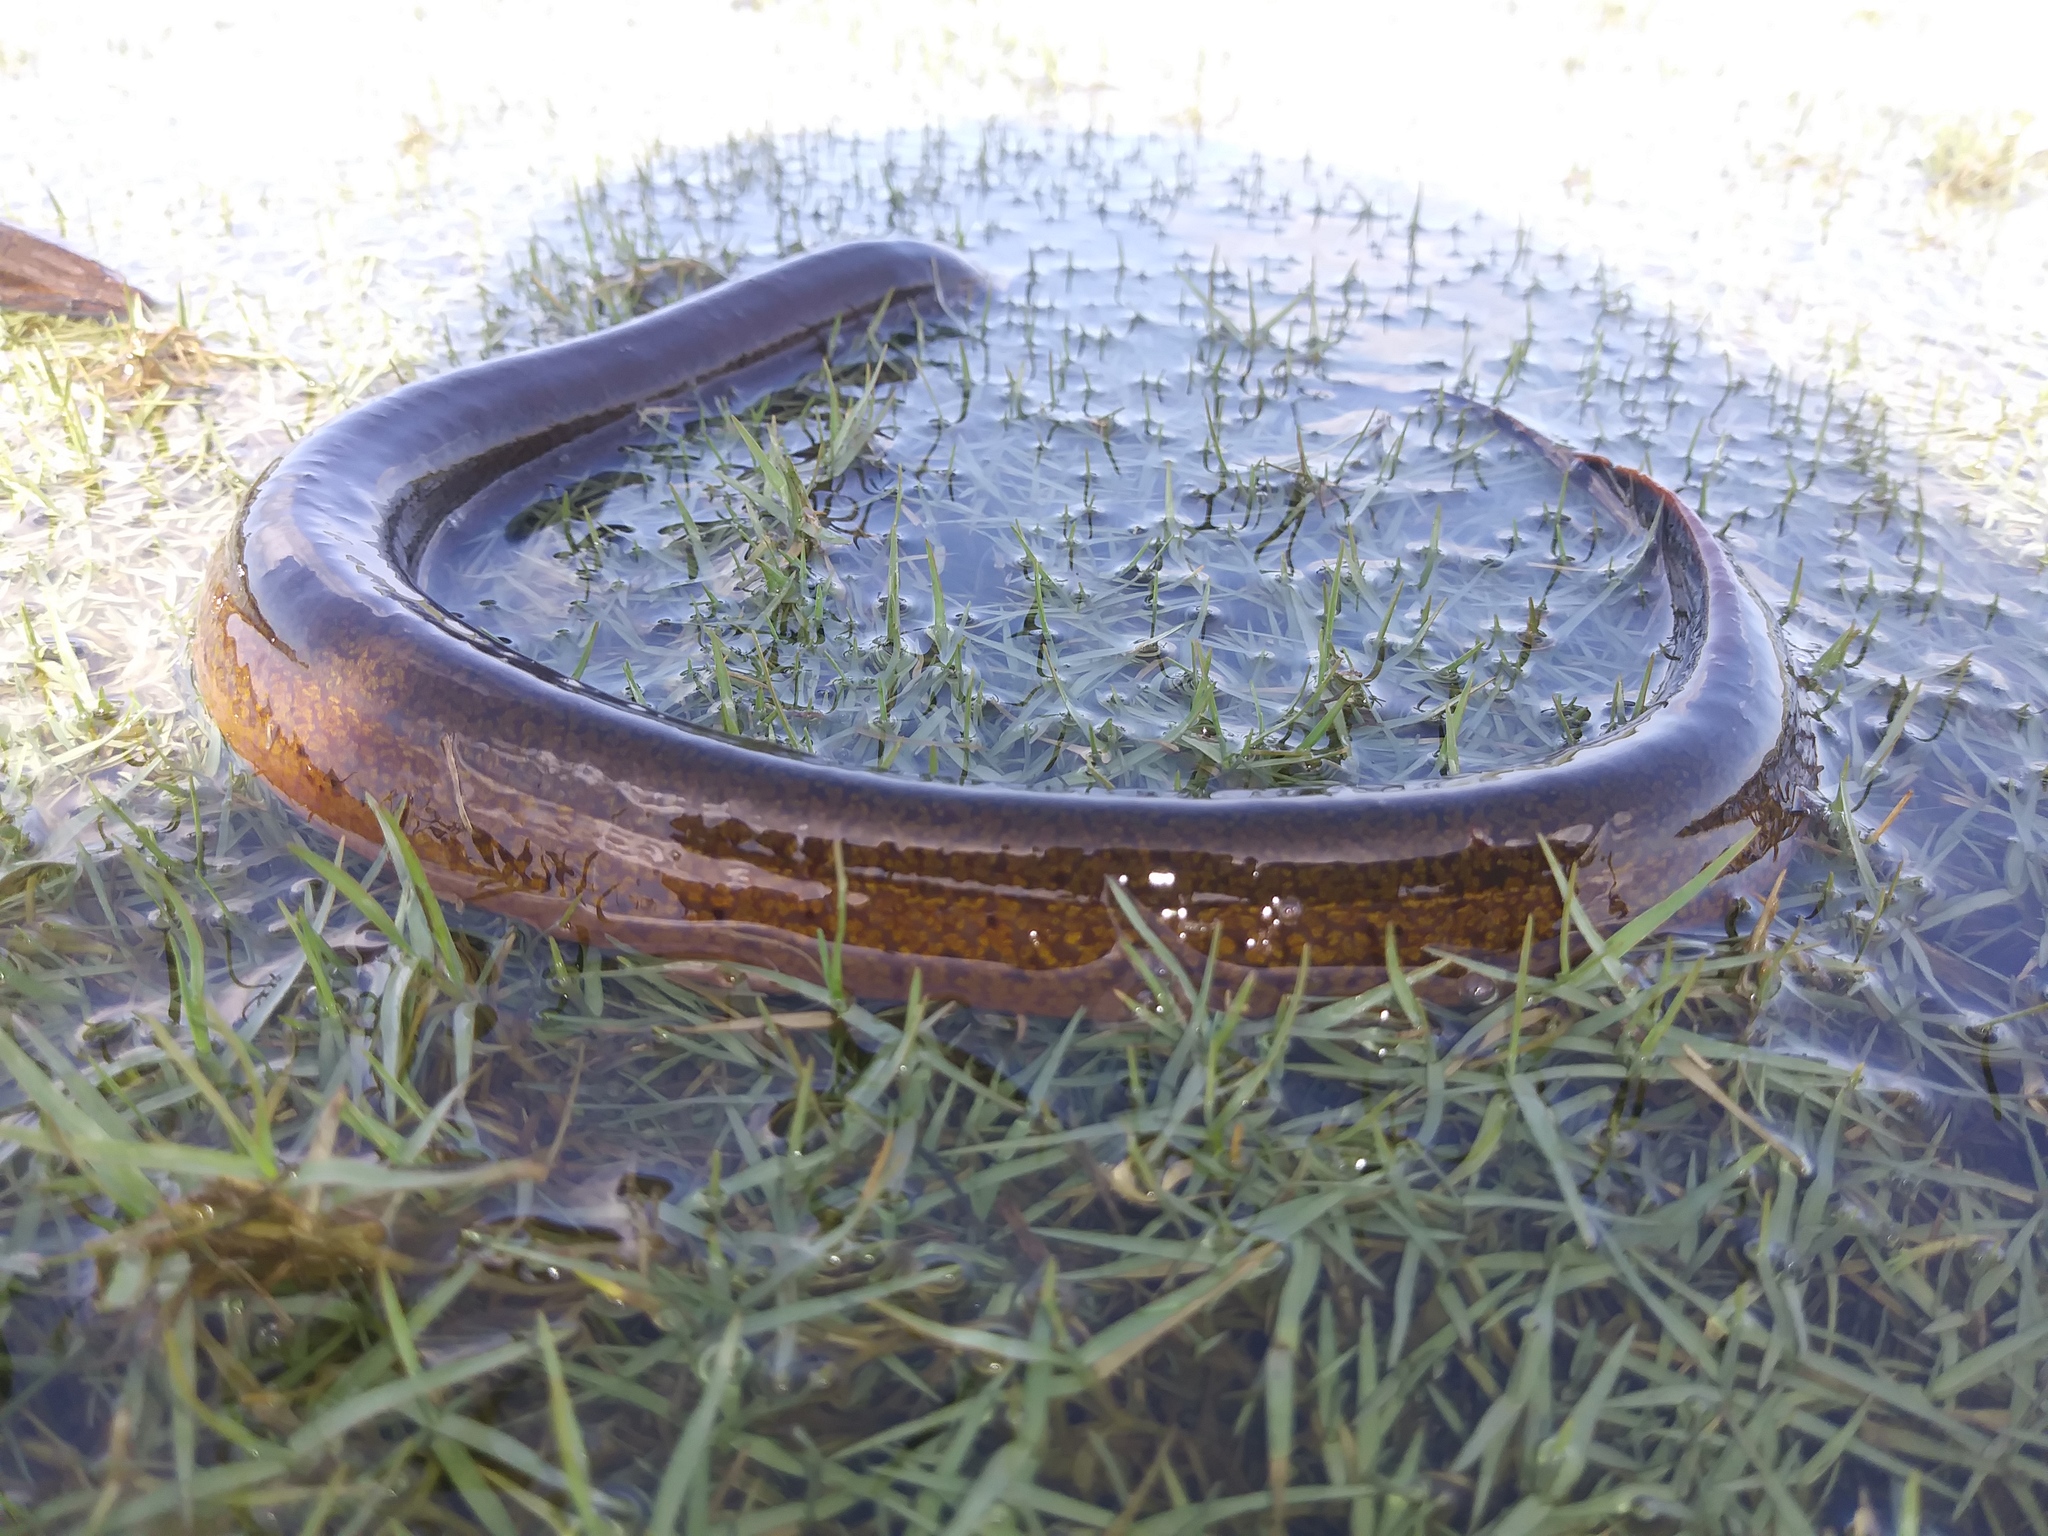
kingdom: Animalia
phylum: Chordata
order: Synbranchiformes
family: Synbranchidae
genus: Monopterus
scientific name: Monopterus albus
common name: Asian swamp eel
